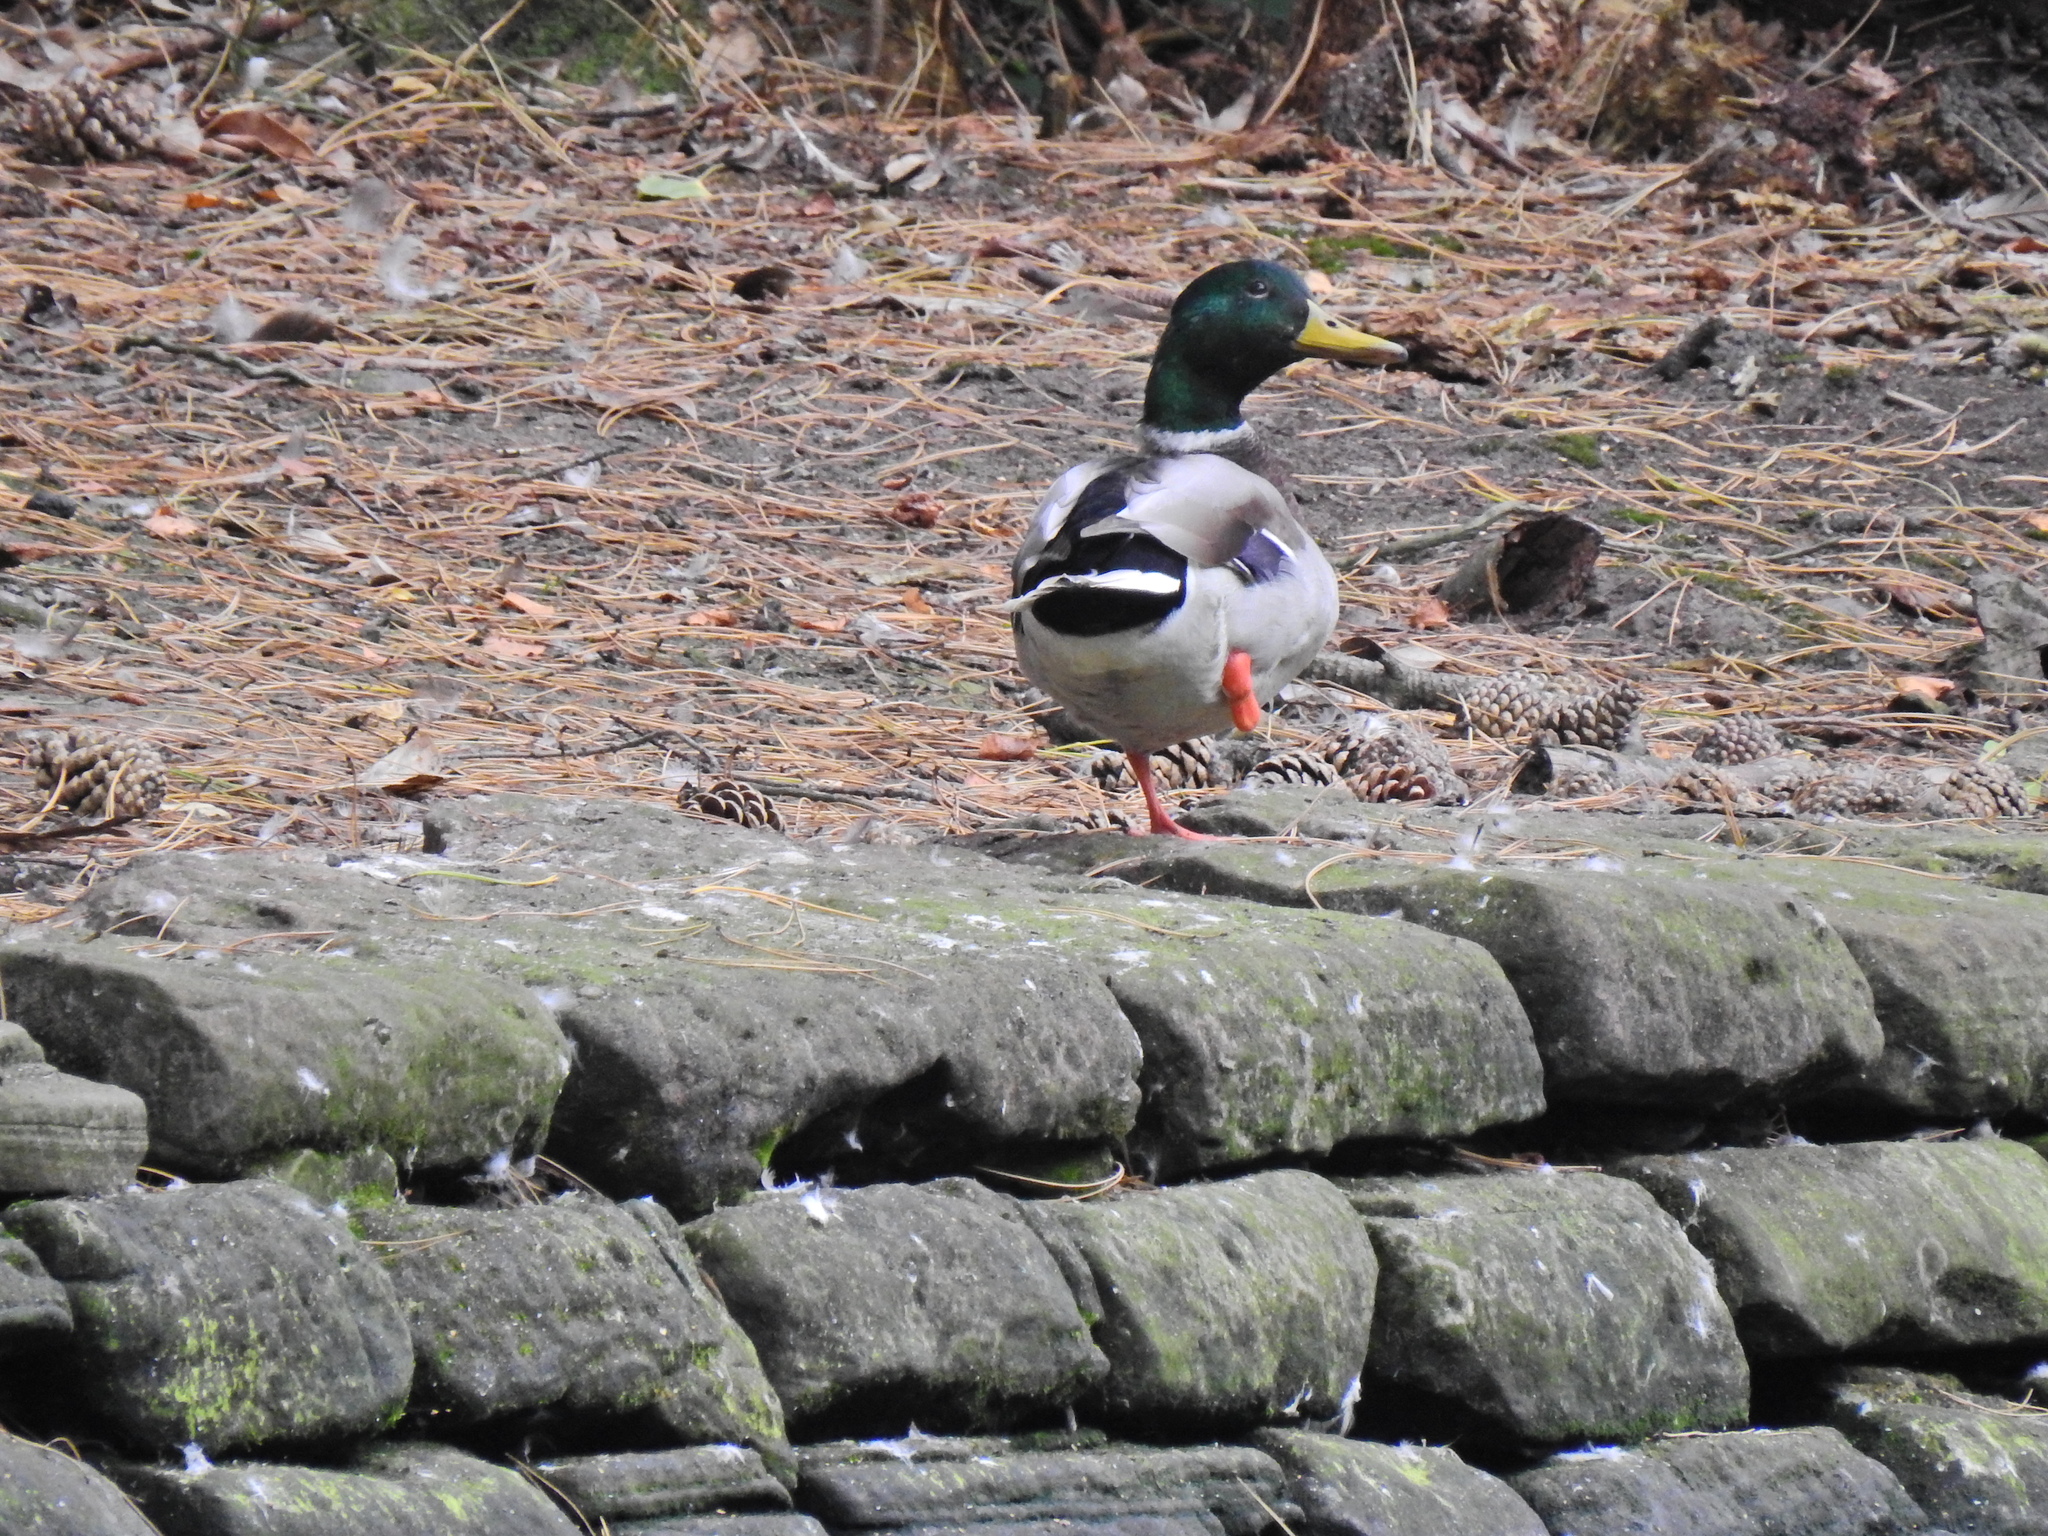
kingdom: Animalia
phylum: Chordata
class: Aves
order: Anseriformes
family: Anatidae
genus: Anas
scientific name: Anas platyrhynchos
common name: Mallard
